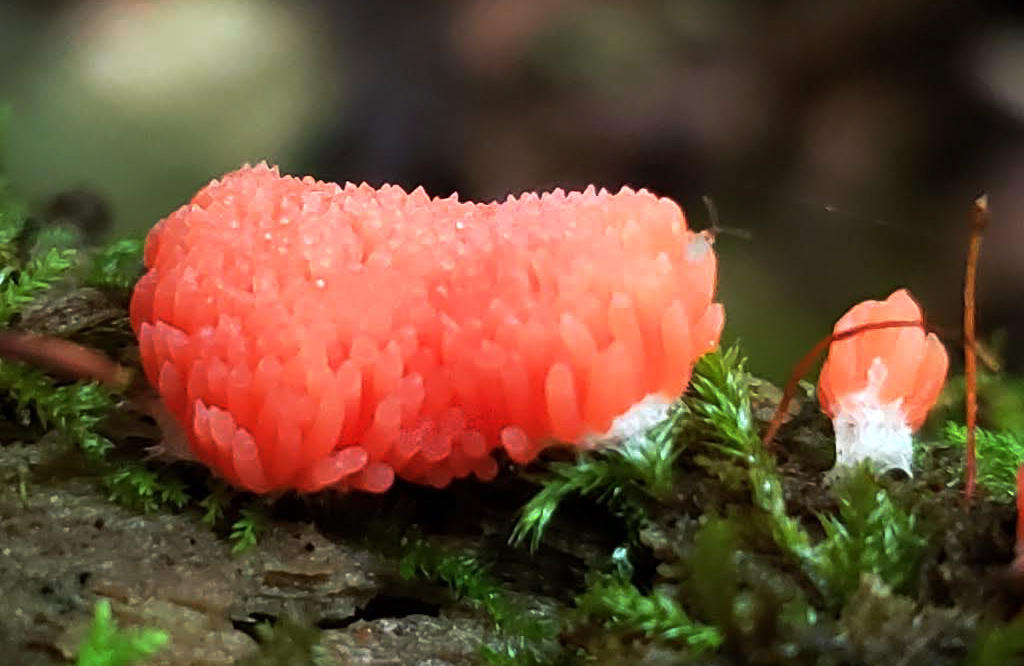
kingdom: Protozoa
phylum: Mycetozoa
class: Myxomycetes
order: Cribrariales
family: Tubiferaceae
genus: Tubifera
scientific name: Tubifera ferruginosa
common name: Red raspberry slime mold
